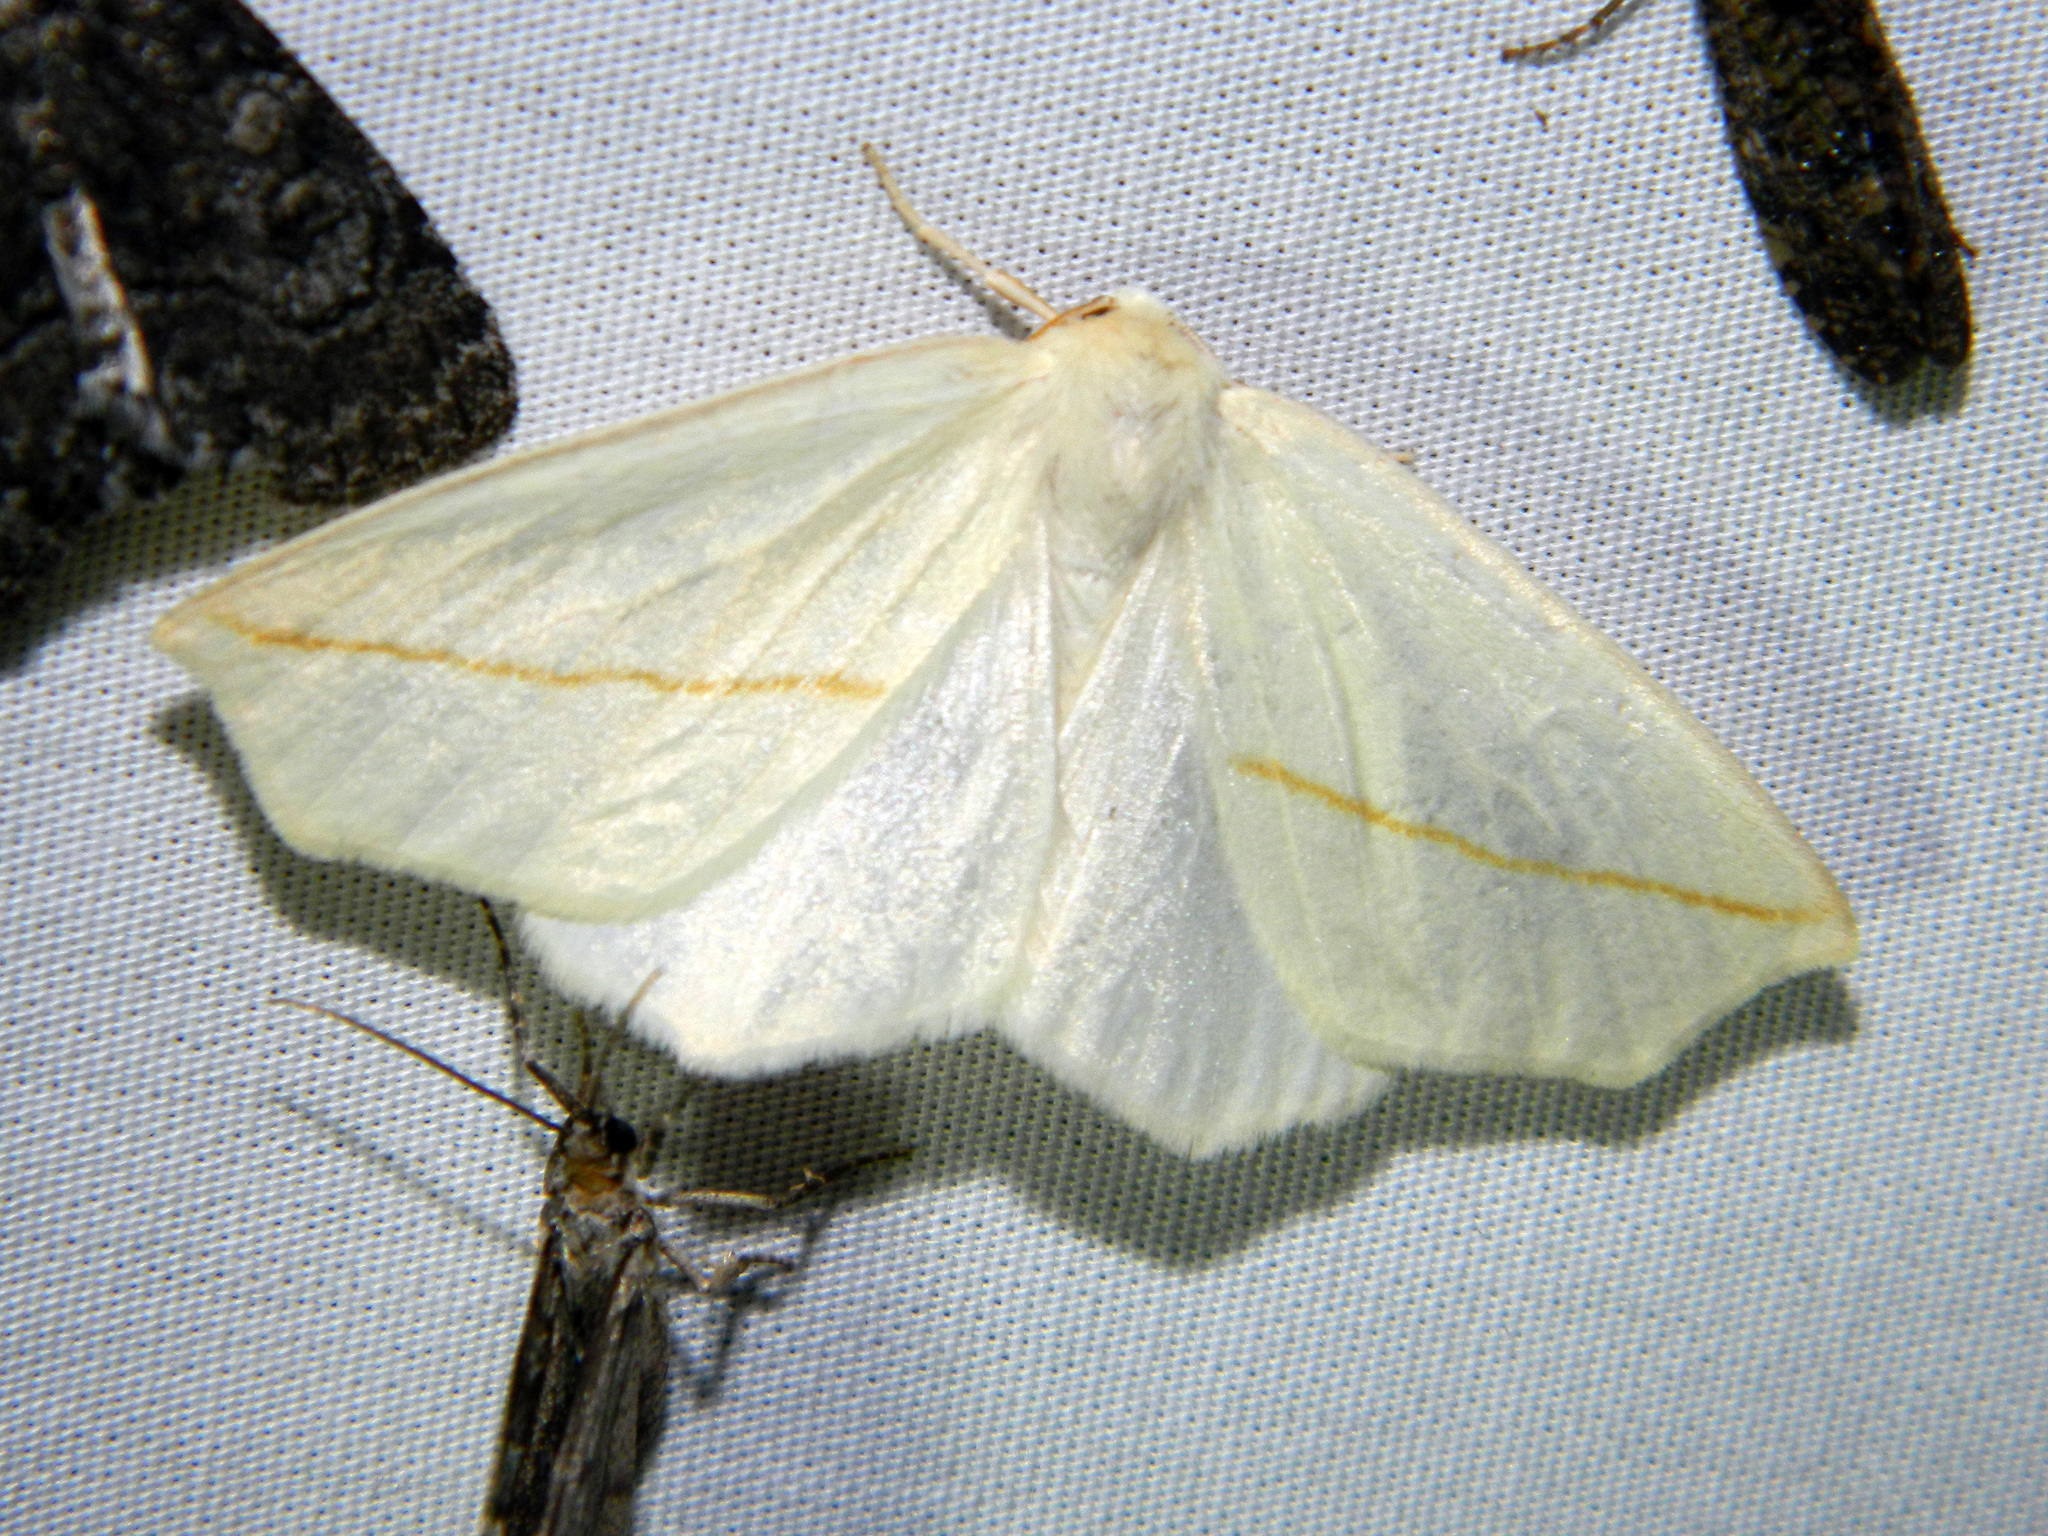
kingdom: Animalia
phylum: Arthropoda
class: Insecta
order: Lepidoptera
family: Geometridae
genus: Tetracis
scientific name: Tetracis cachexiata
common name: White slant-line
